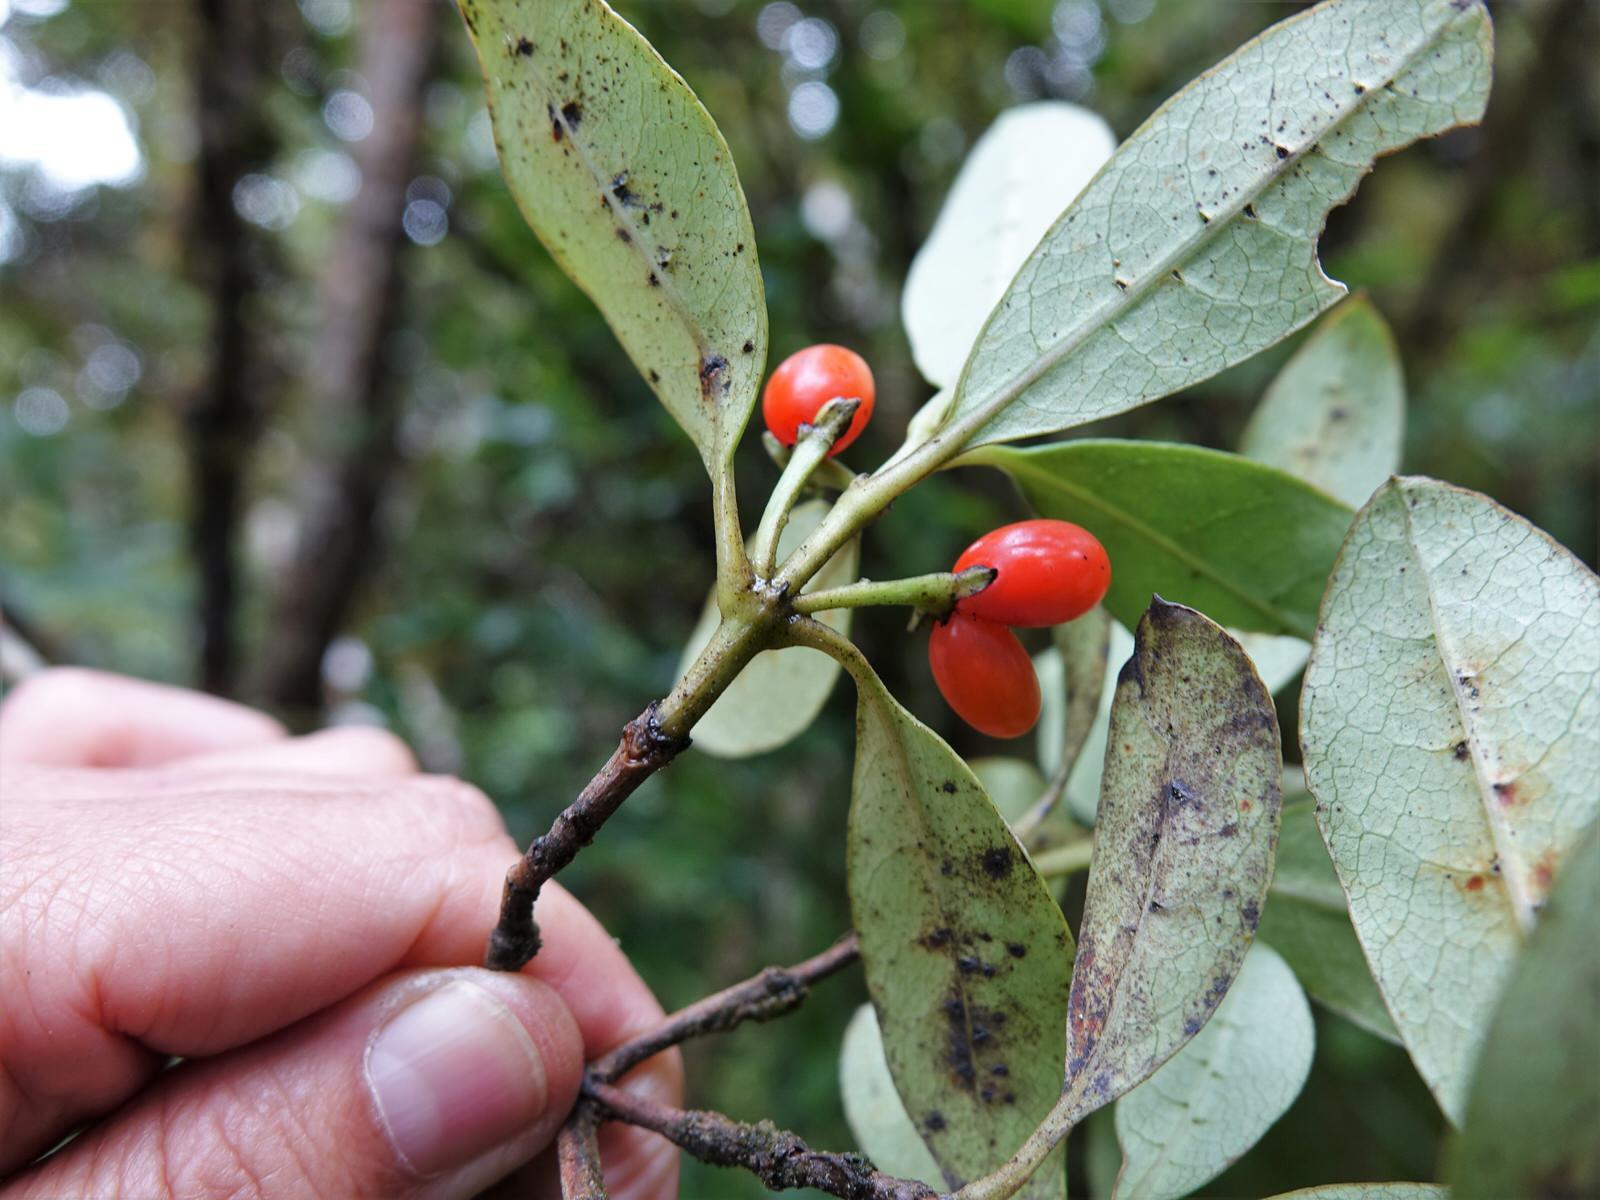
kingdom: Plantae
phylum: Tracheophyta
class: Magnoliopsida
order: Gentianales
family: Rubiaceae
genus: Coprosma
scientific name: Coprosma dodonaeifolia
